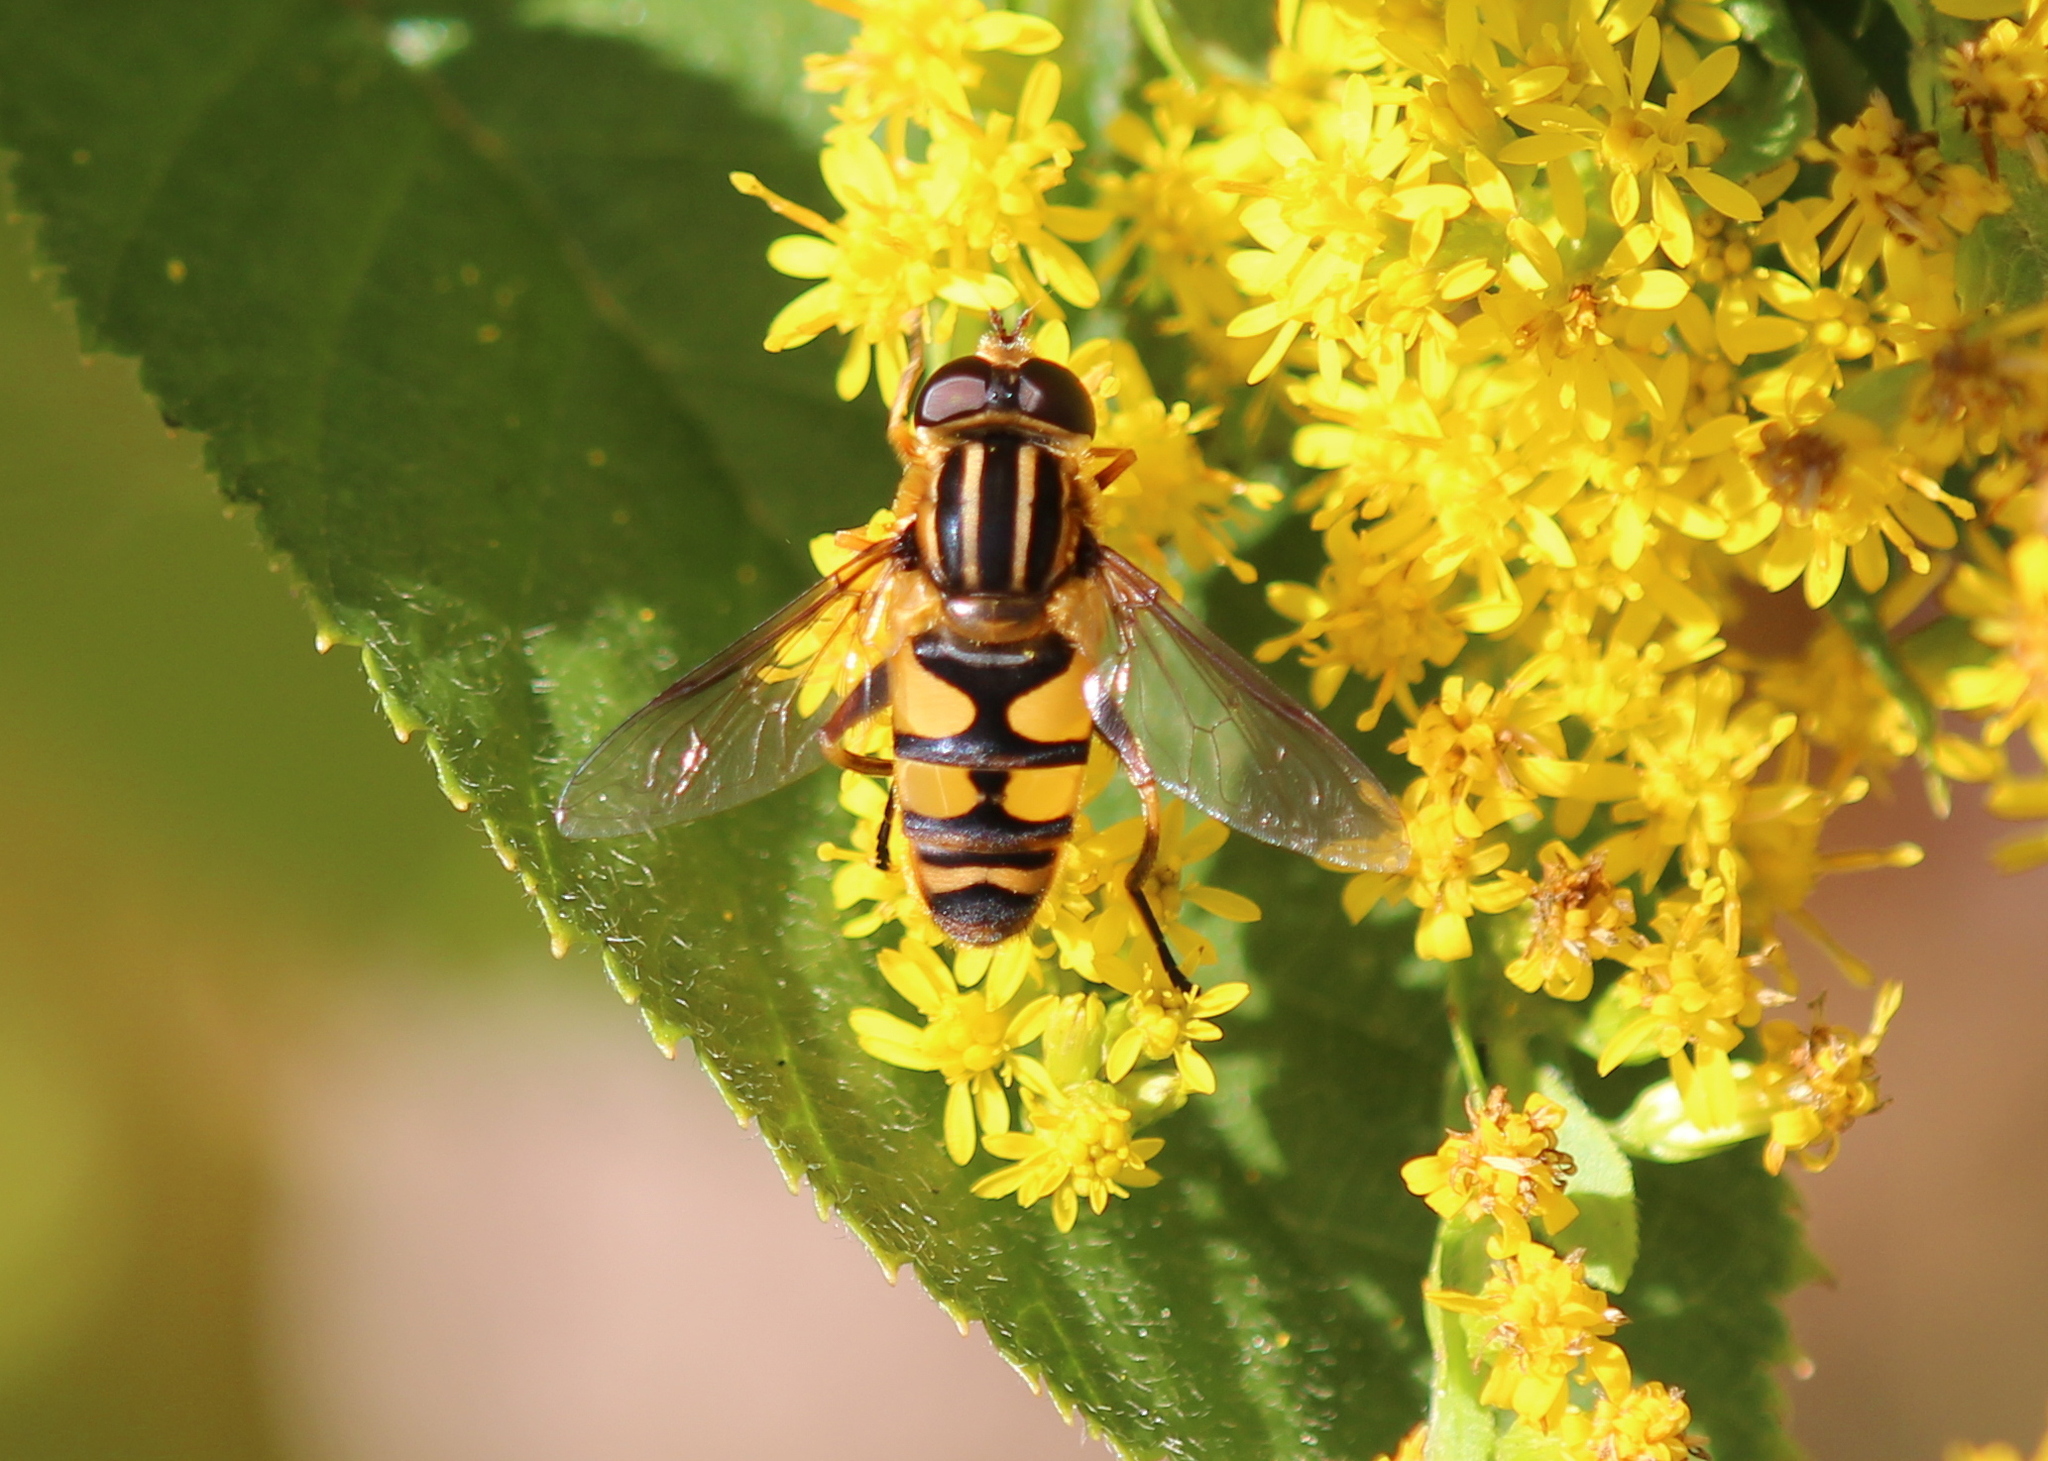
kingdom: Animalia
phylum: Arthropoda
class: Insecta
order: Diptera
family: Syrphidae
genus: Helophilus
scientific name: Helophilus fasciatus
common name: Narrow-headed marsh fly
